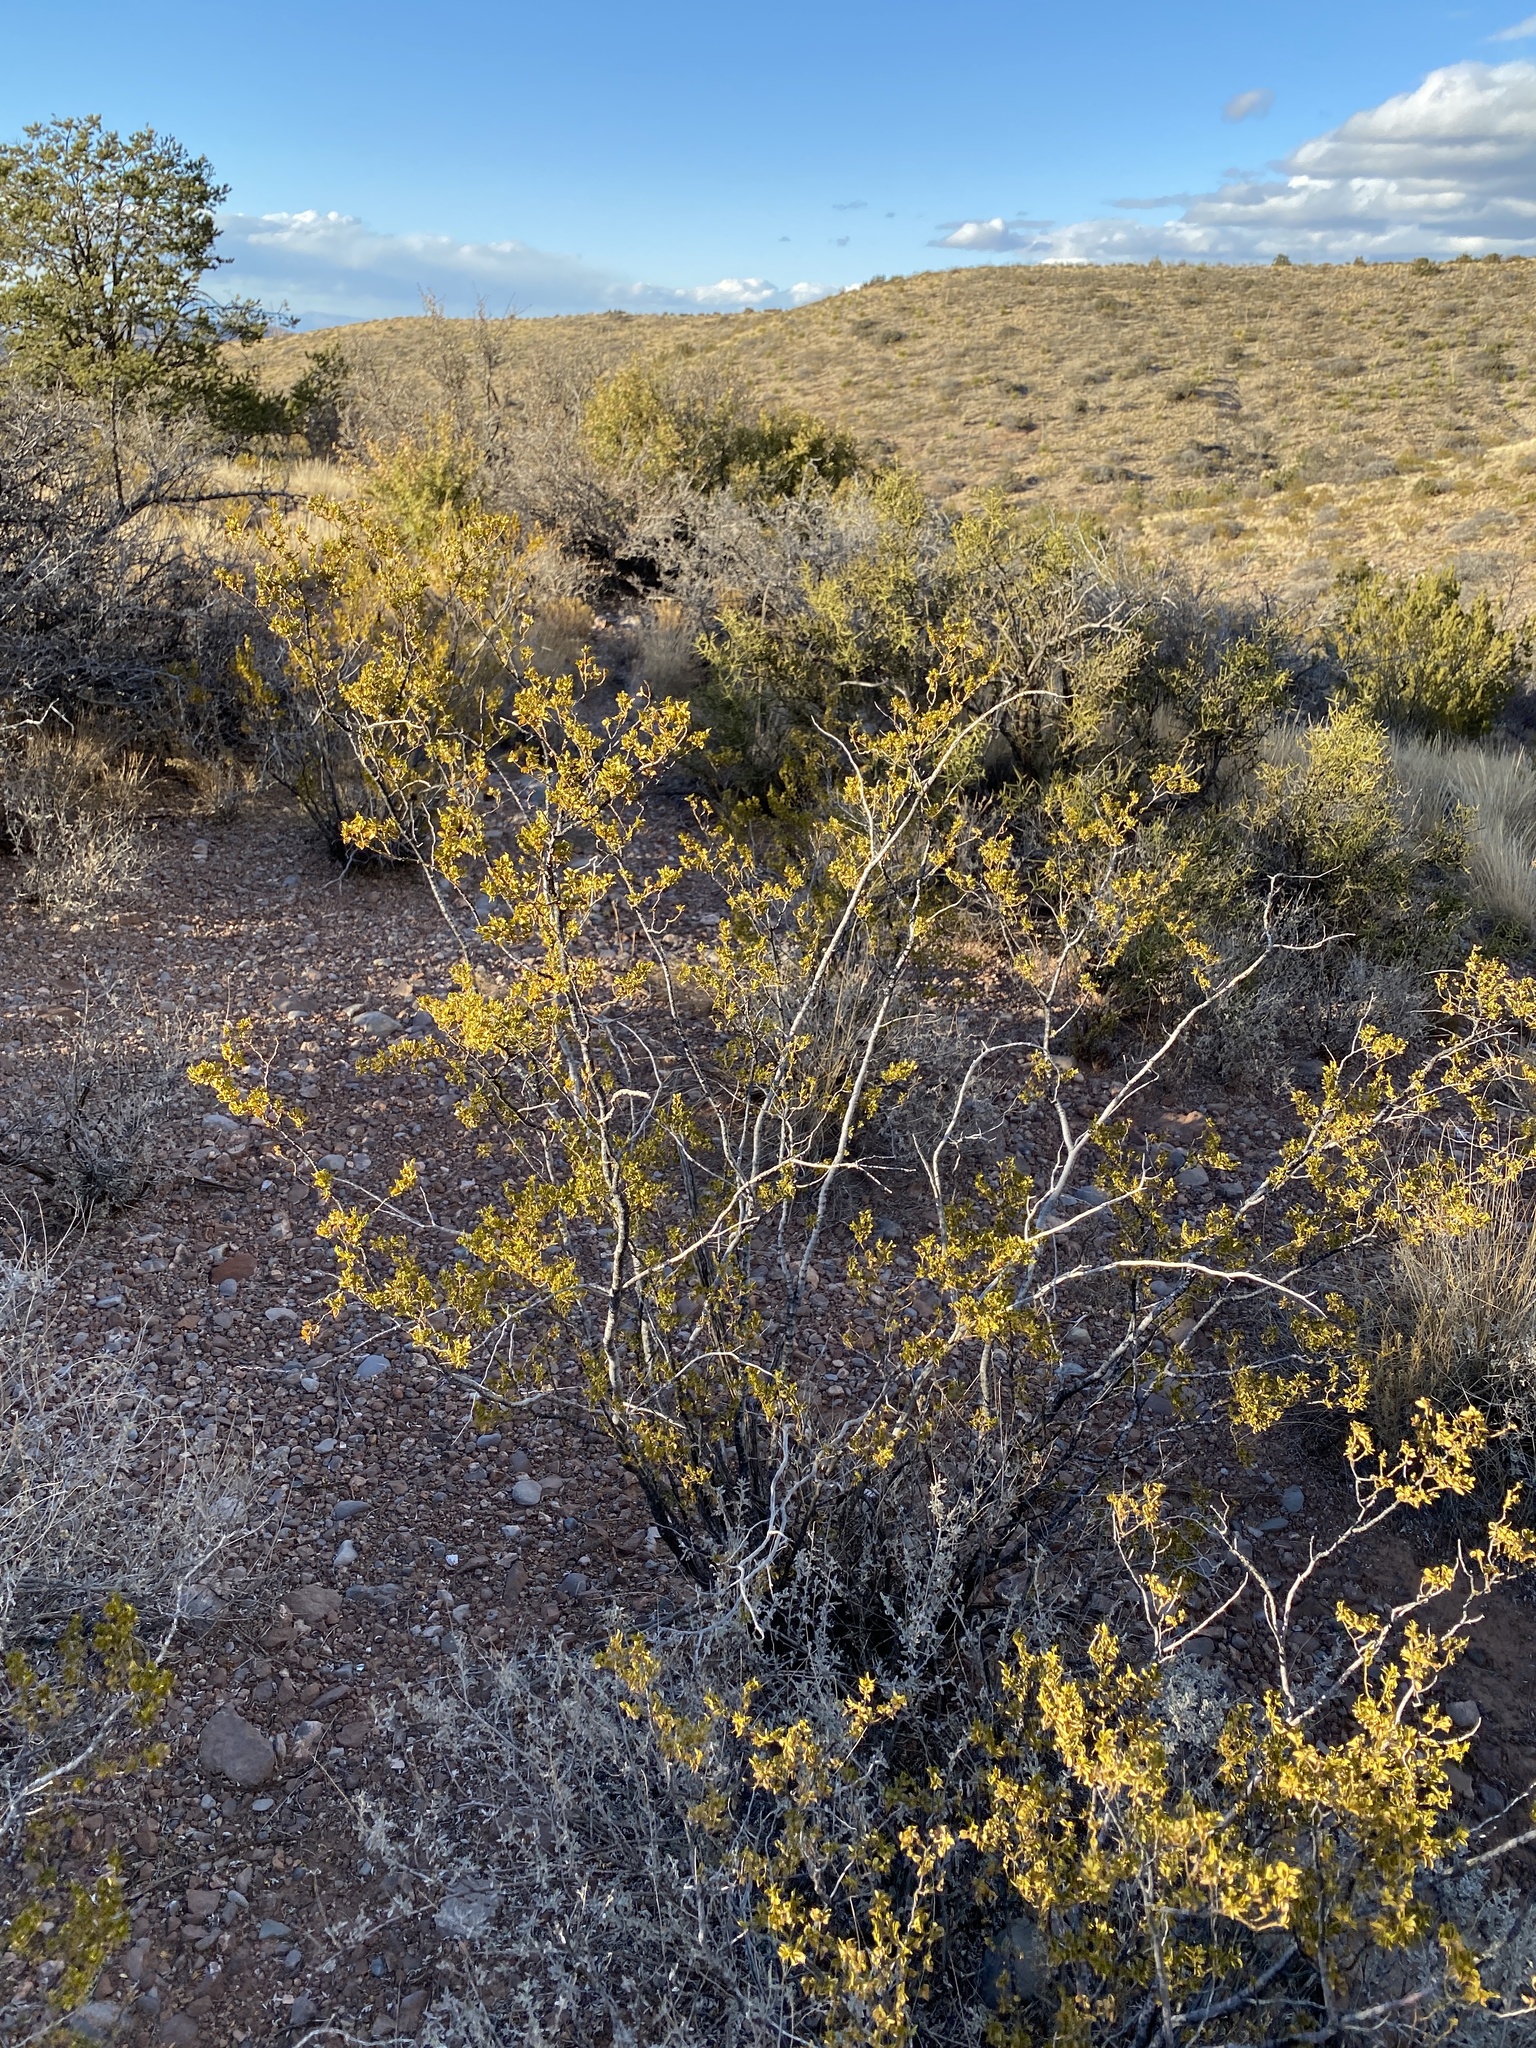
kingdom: Plantae
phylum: Tracheophyta
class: Magnoliopsida
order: Zygophyllales
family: Zygophyllaceae
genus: Larrea
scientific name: Larrea tridentata
